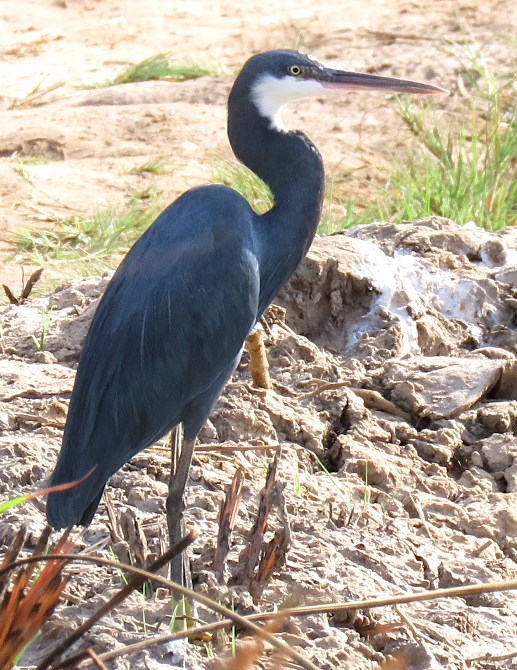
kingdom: Animalia
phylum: Chordata
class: Aves
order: Pelecaniformes
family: Ardeidae
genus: Egretta
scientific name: Egretta gularis
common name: Western reef-heron
